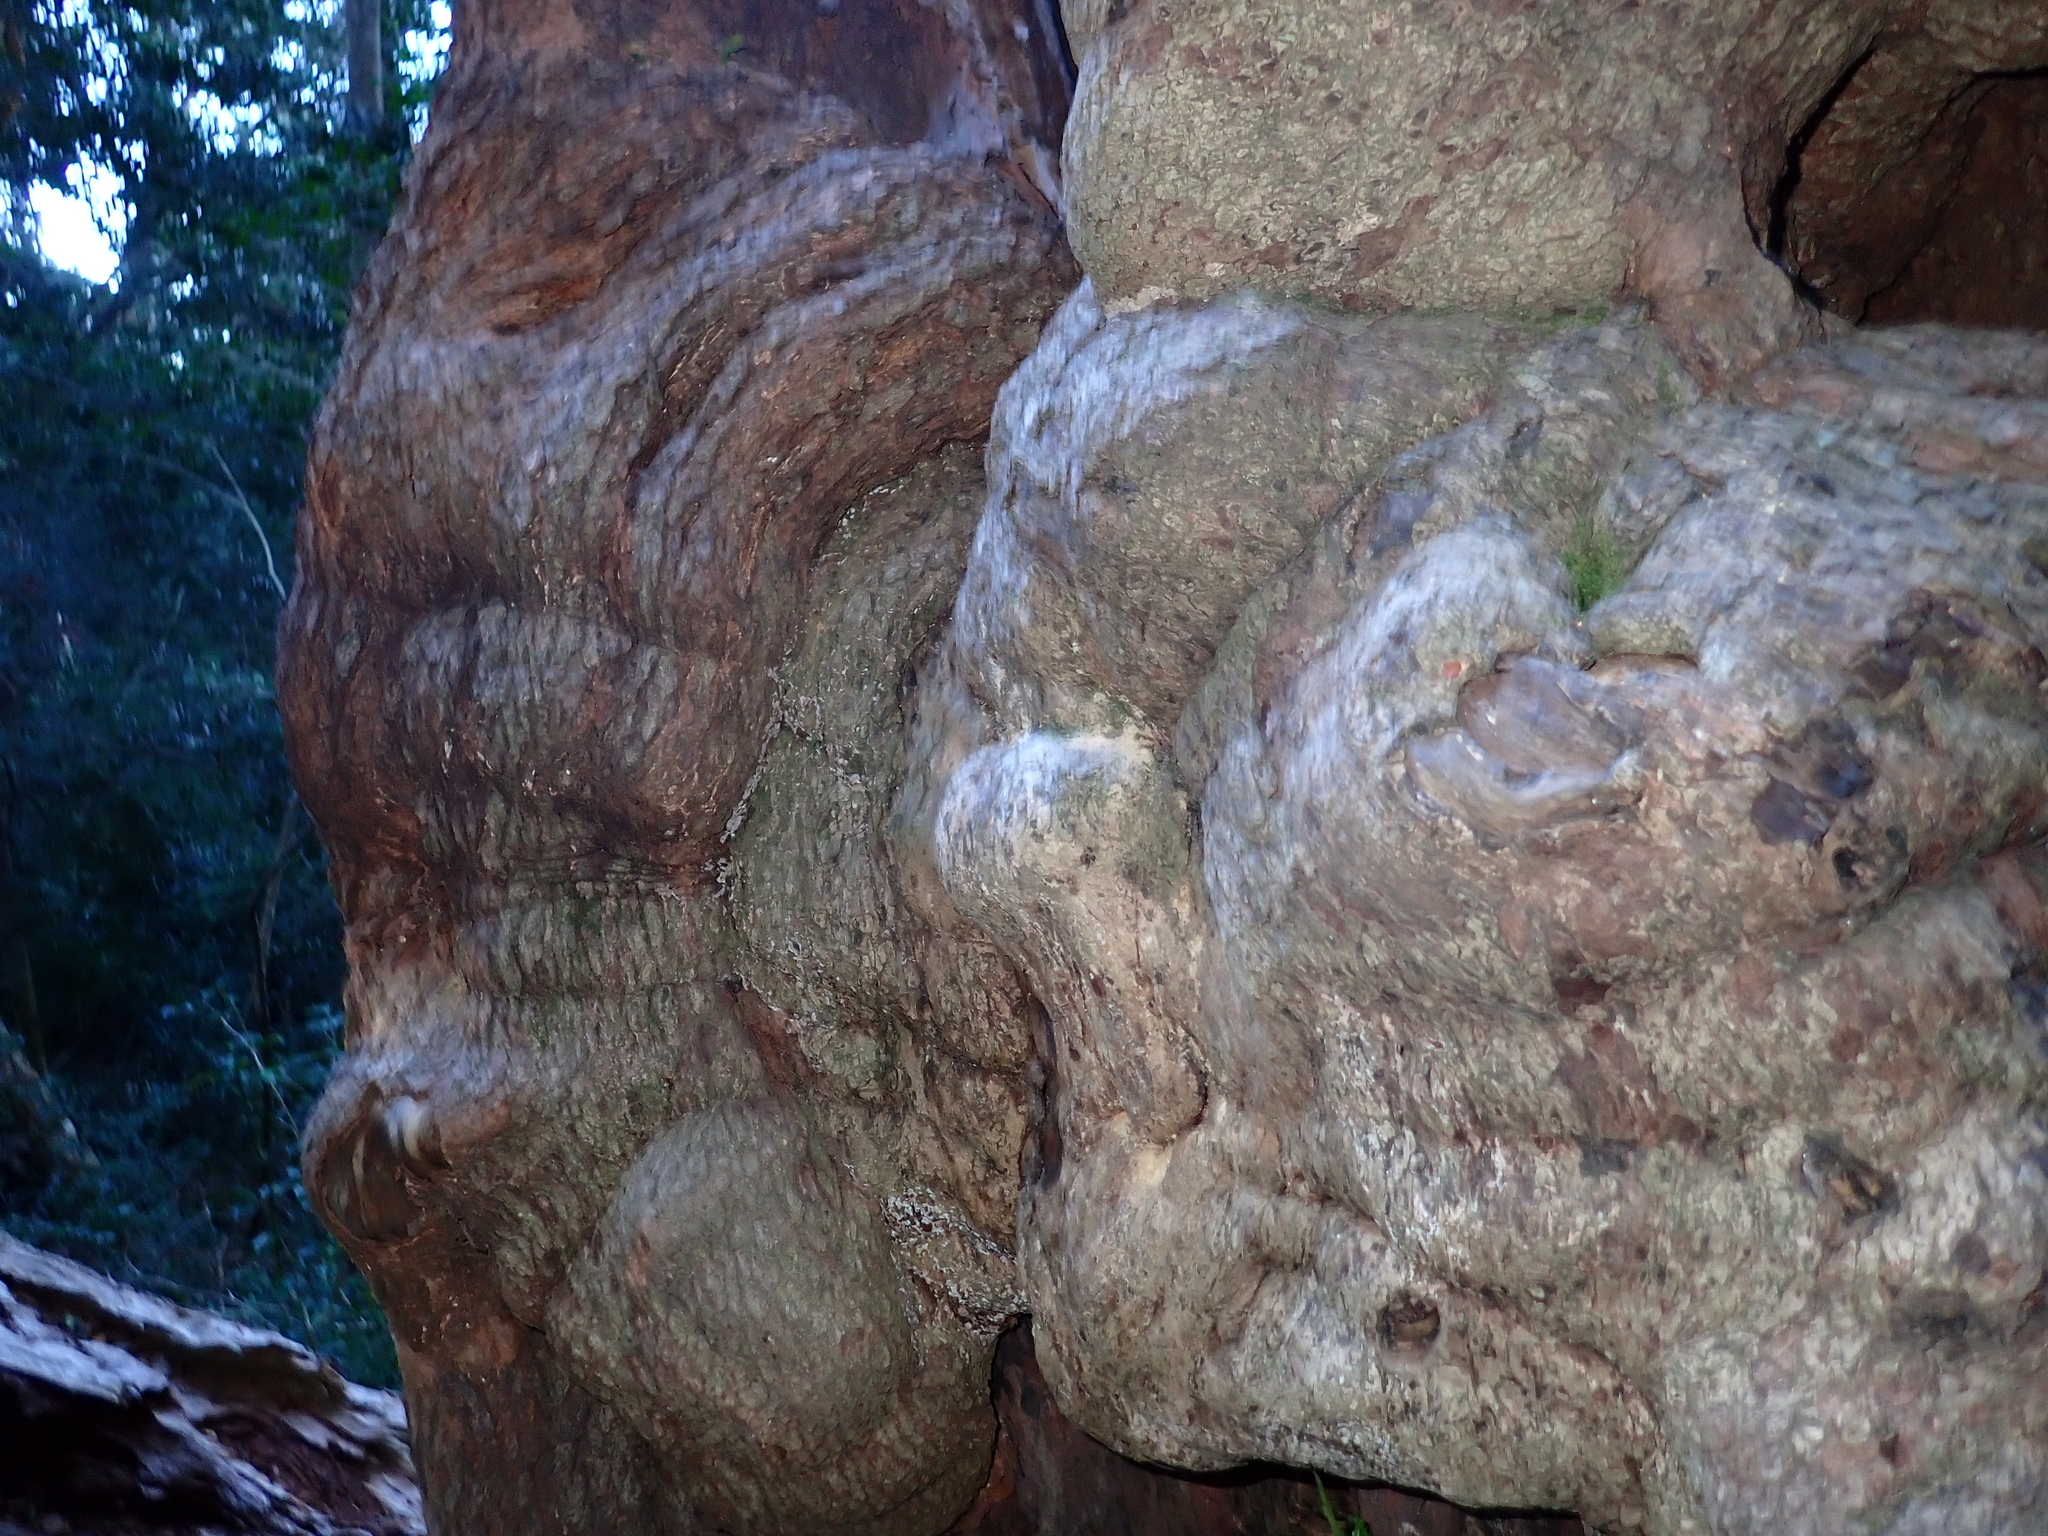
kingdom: Plantae
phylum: Tracheophyta
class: Magnoliopsida
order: Myrtales
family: Penaeaceae
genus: Olinia
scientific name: Olinia ventosa
